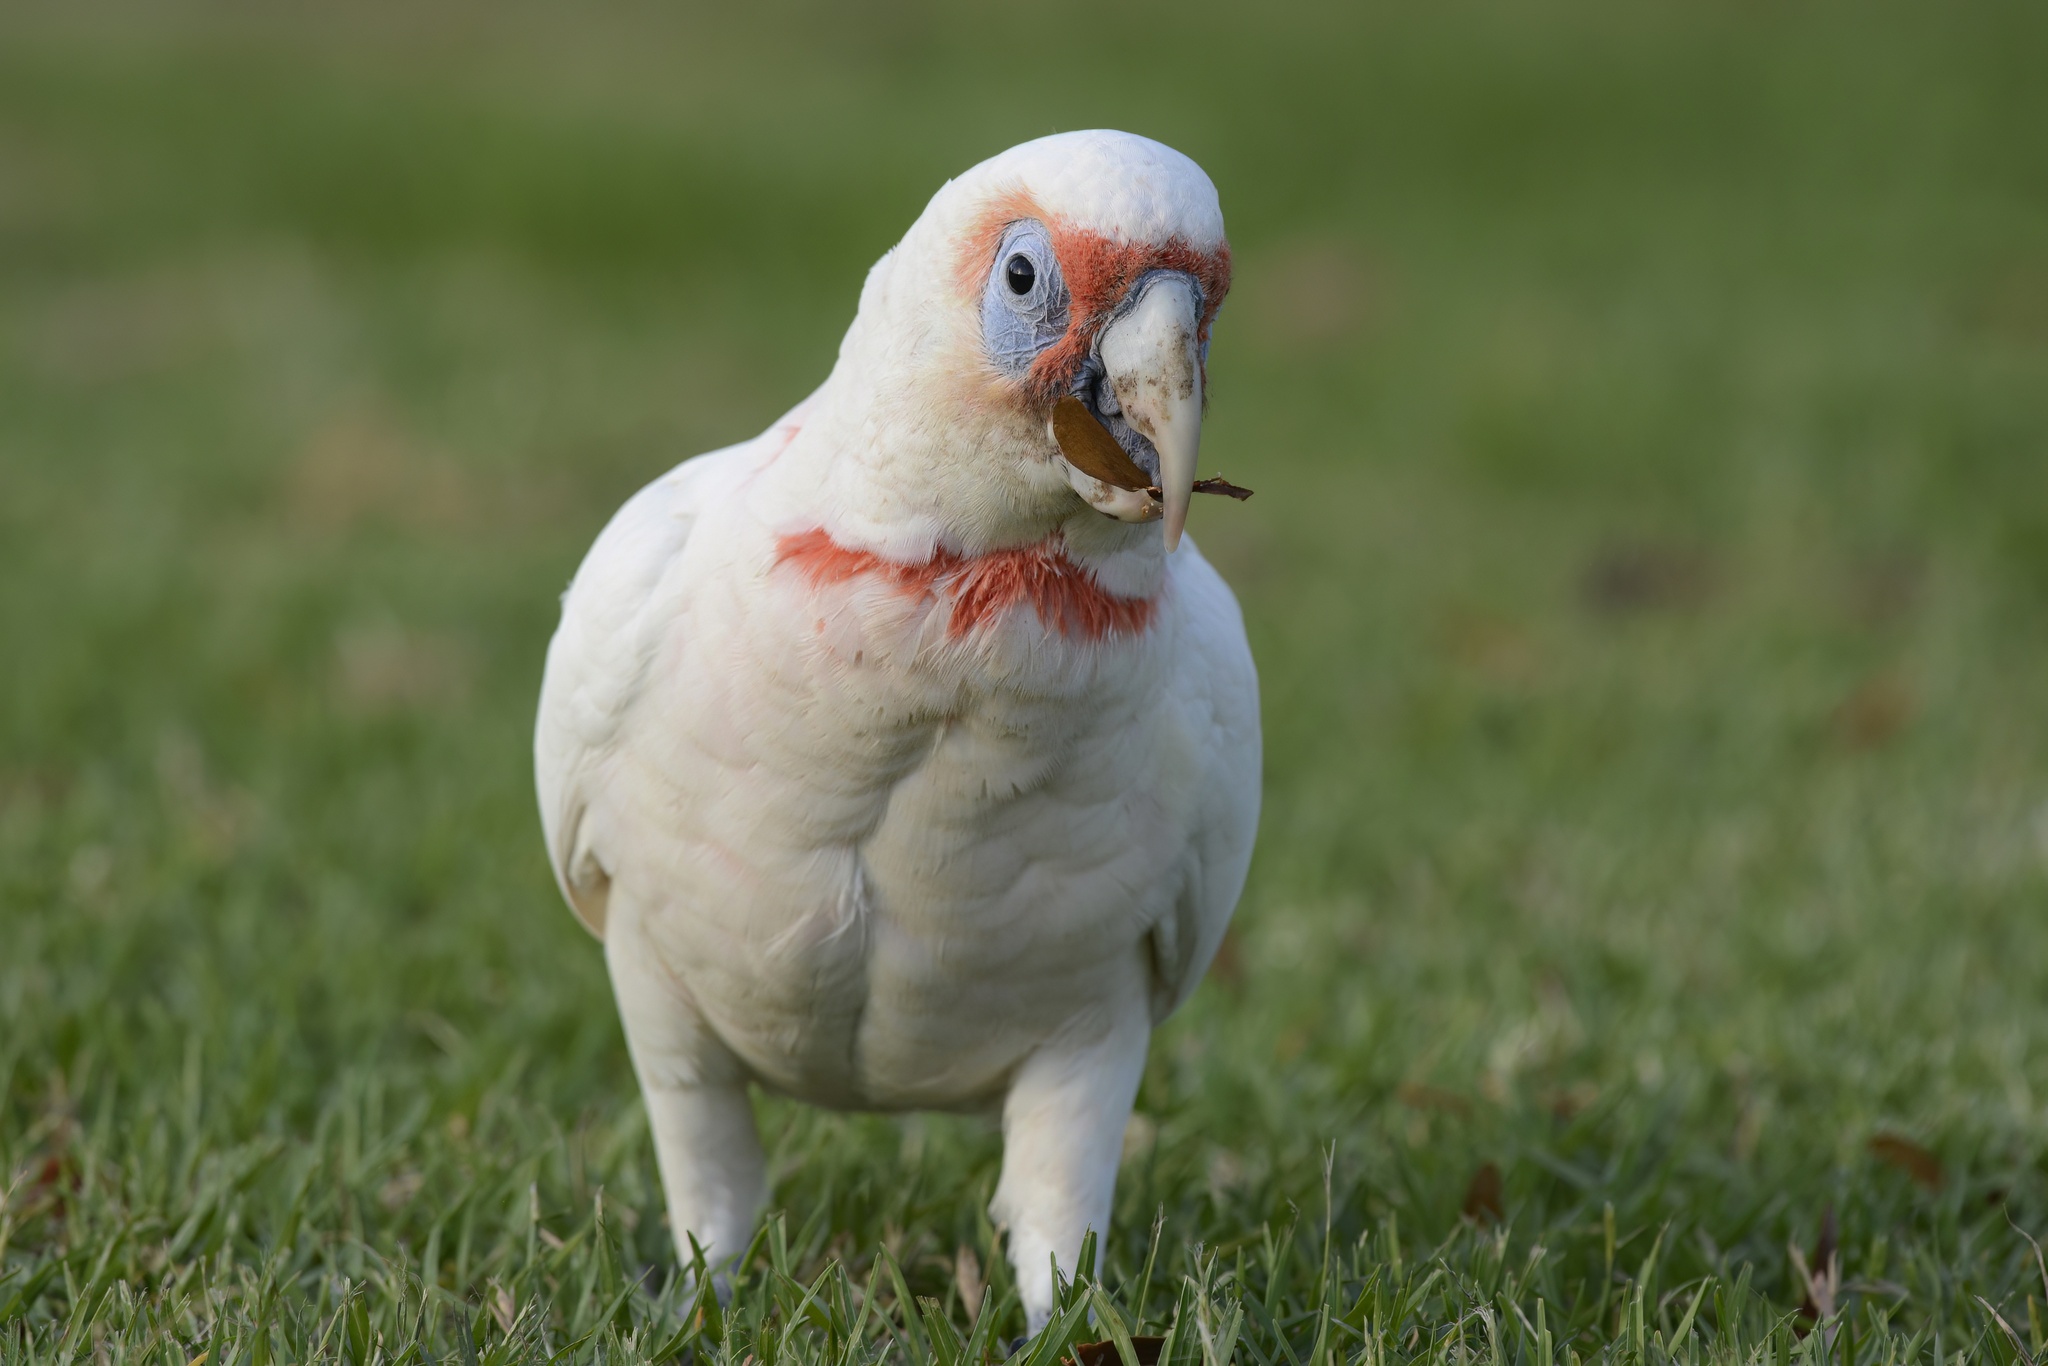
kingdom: Animalia
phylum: Chordata
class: Aves
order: Psittaciformes
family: Psittacidae
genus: Cacatua
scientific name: Cacatua tenuirostris
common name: Long-billed corella
